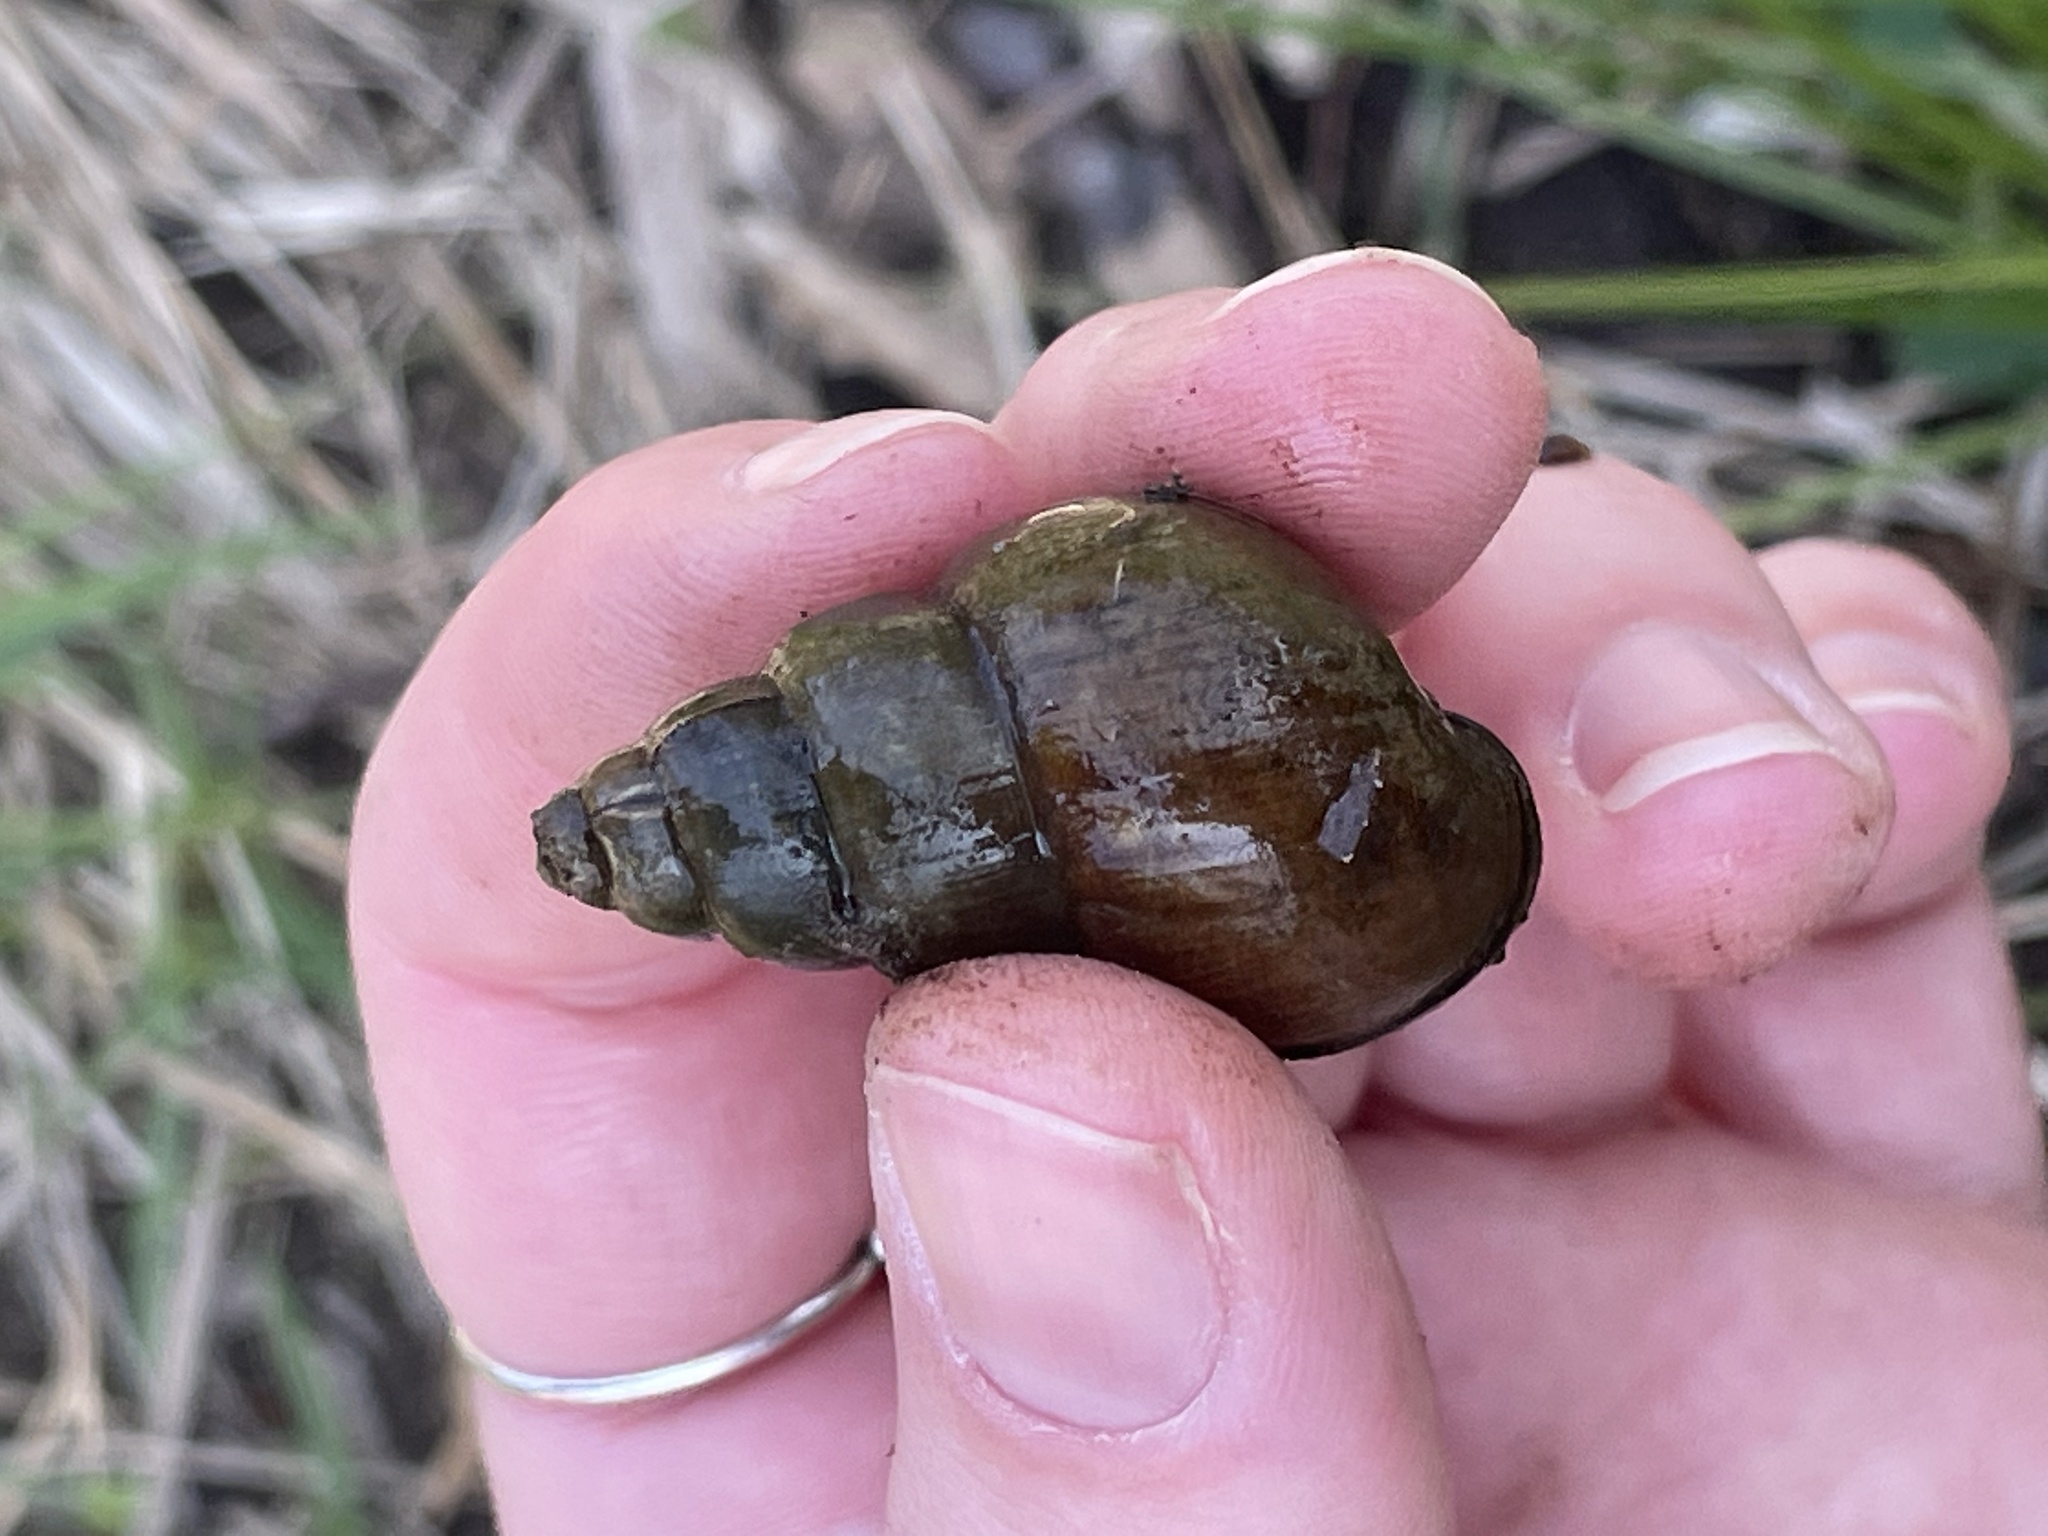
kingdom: Animalia
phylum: Mollusca
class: Gastropoda
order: Architaenioglossa
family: Viviparidae
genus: Cipangopaludina
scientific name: Cipangopaludina chinensis
